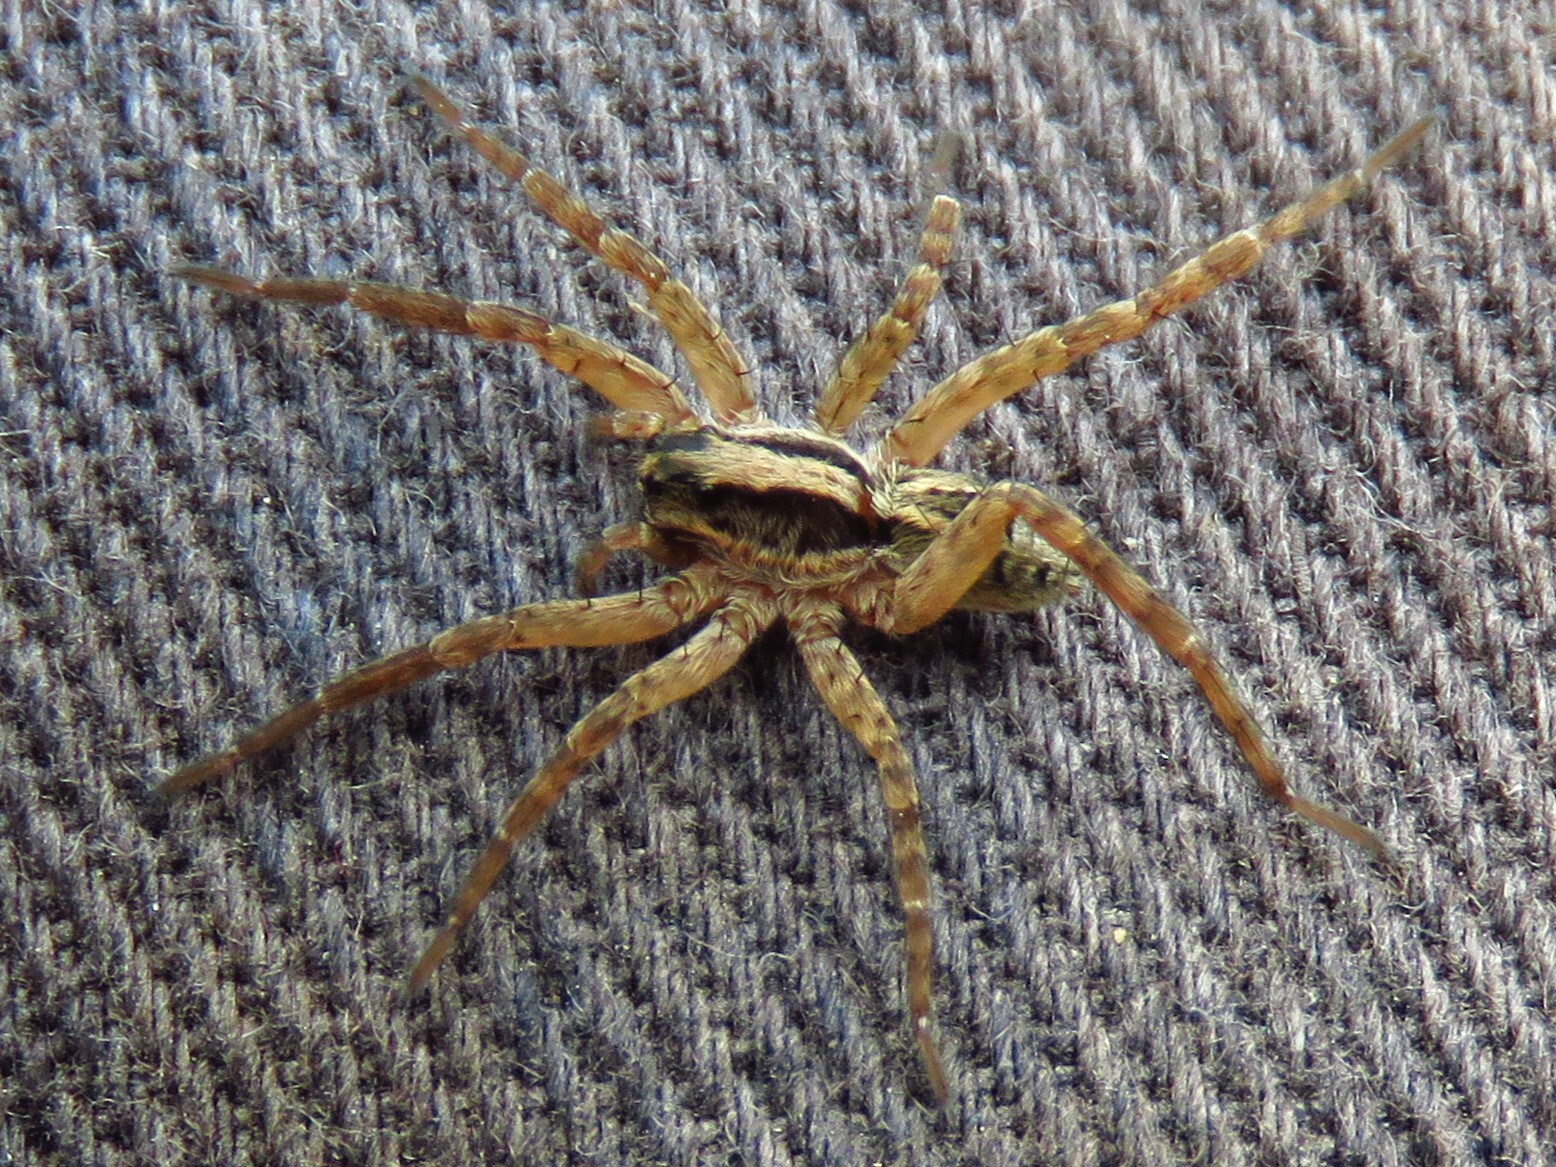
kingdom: Animalia
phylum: Arthropoda
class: Arachnida
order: Araneae
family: Lycosidae
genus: Schizocosa
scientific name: Schizocosa avida
